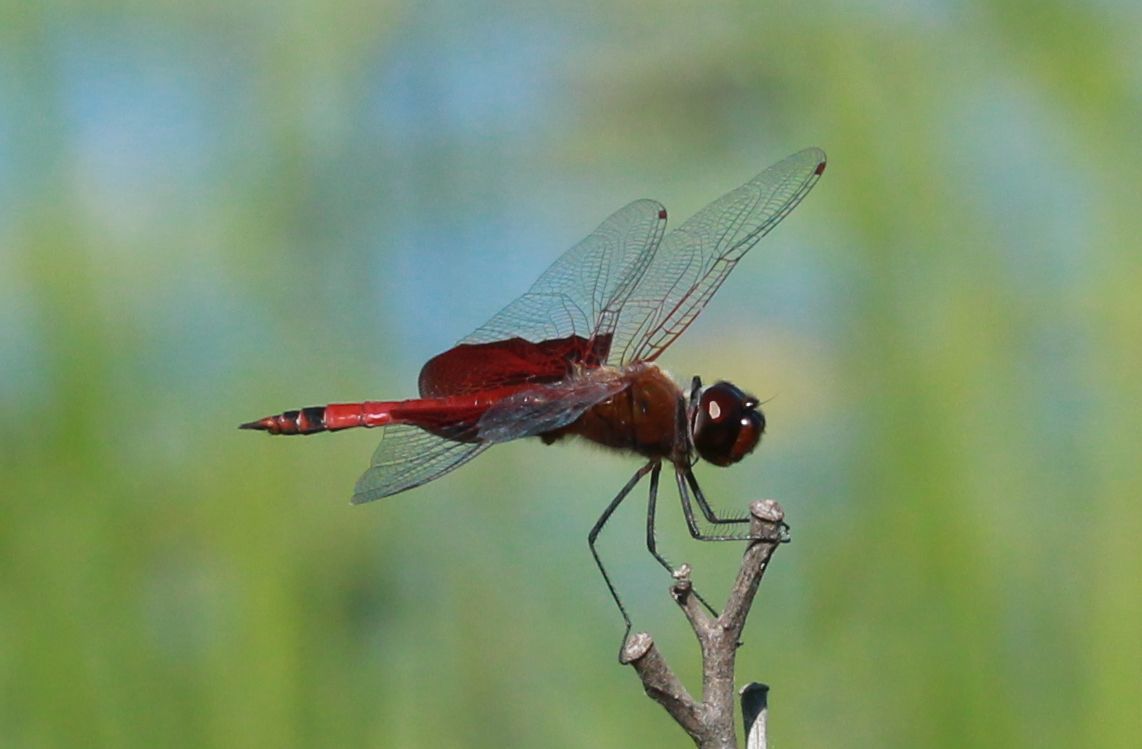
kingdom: Animalia
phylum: Arthropoda
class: Insecta
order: Odonata
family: Libellulidae
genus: Tramea
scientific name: Tramea carolina
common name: Carolina saddlebags
